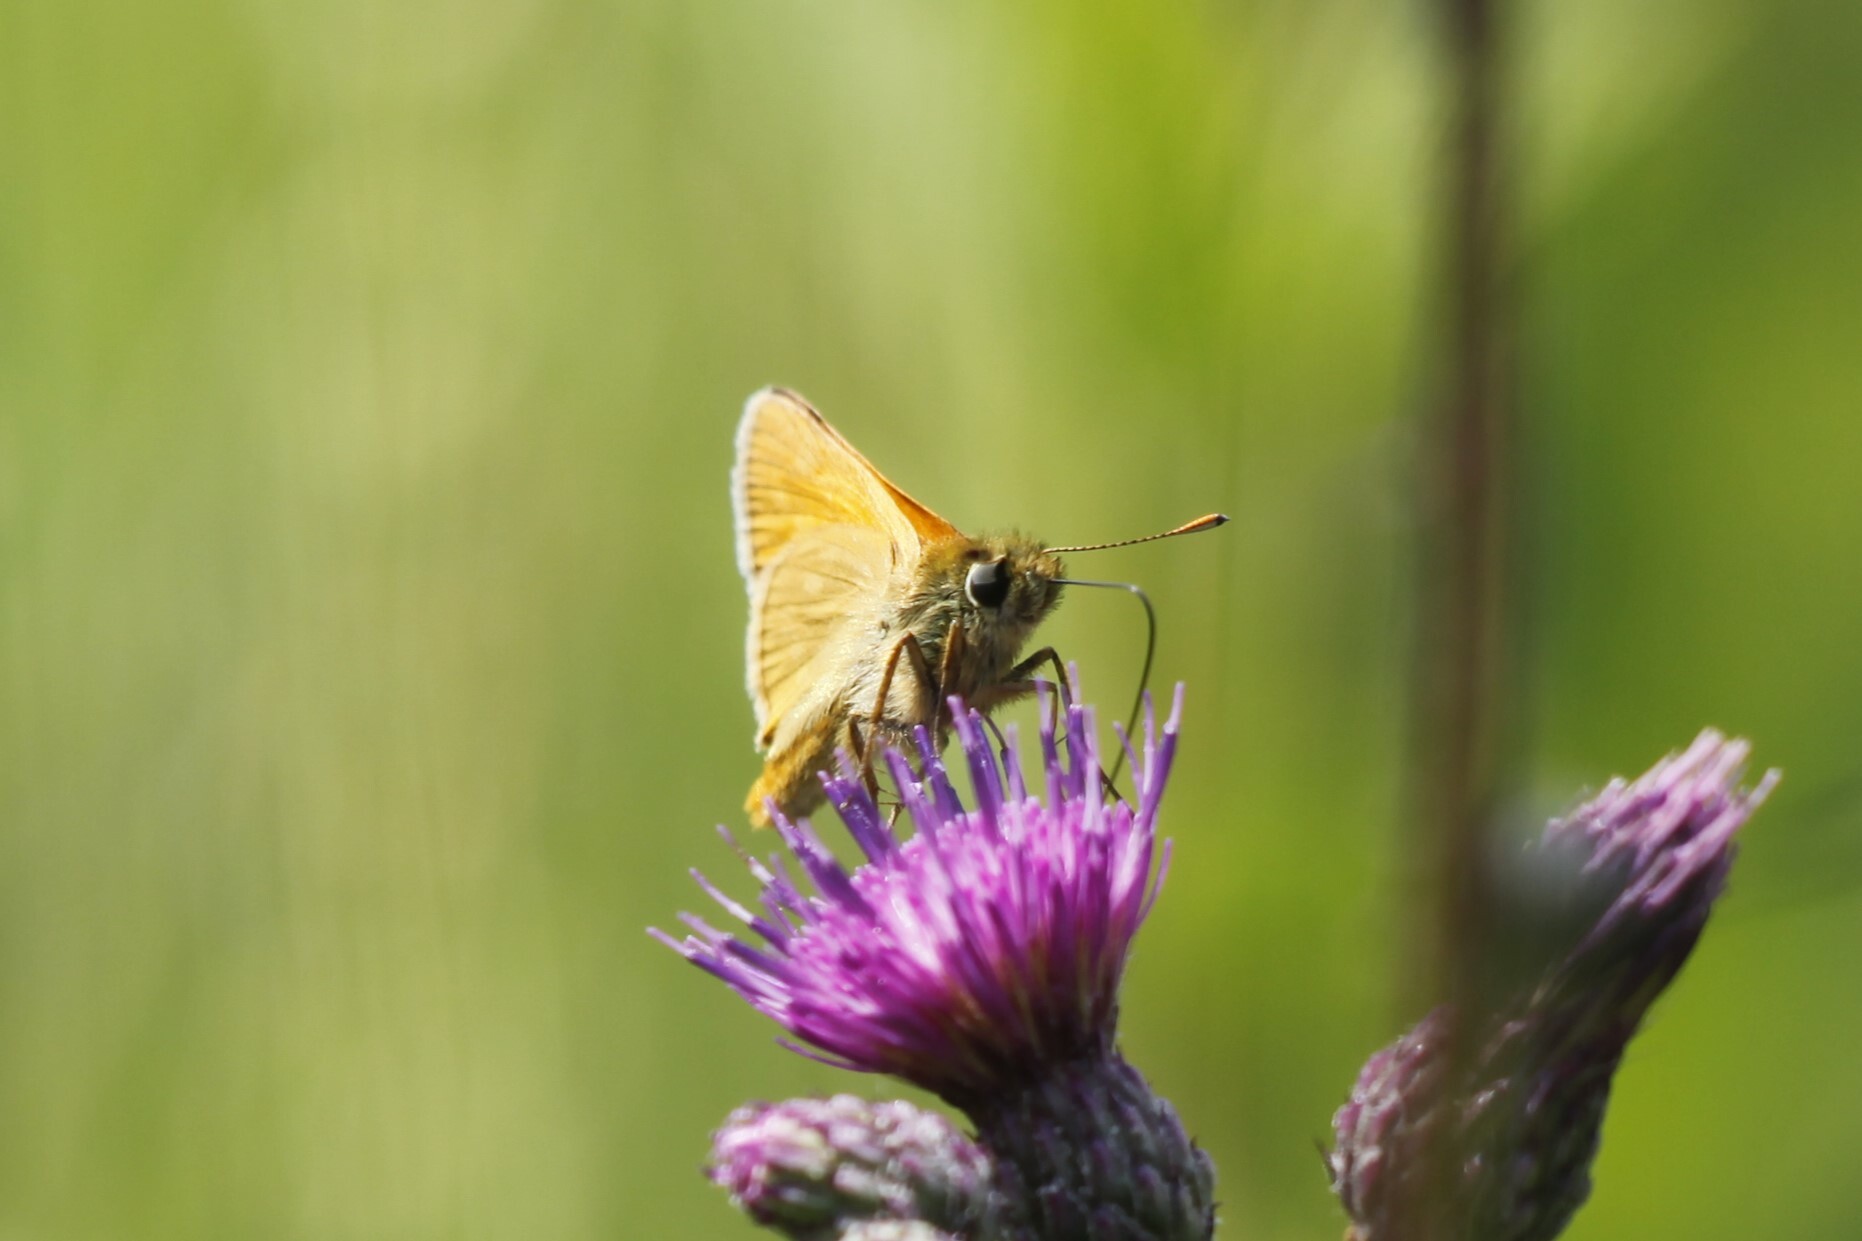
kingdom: Animalia
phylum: Arthropoda
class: Insecta
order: Lepidoptera
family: Hesperiidae
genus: Ochlodes
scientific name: Ochlodes venata
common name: Large skipper
